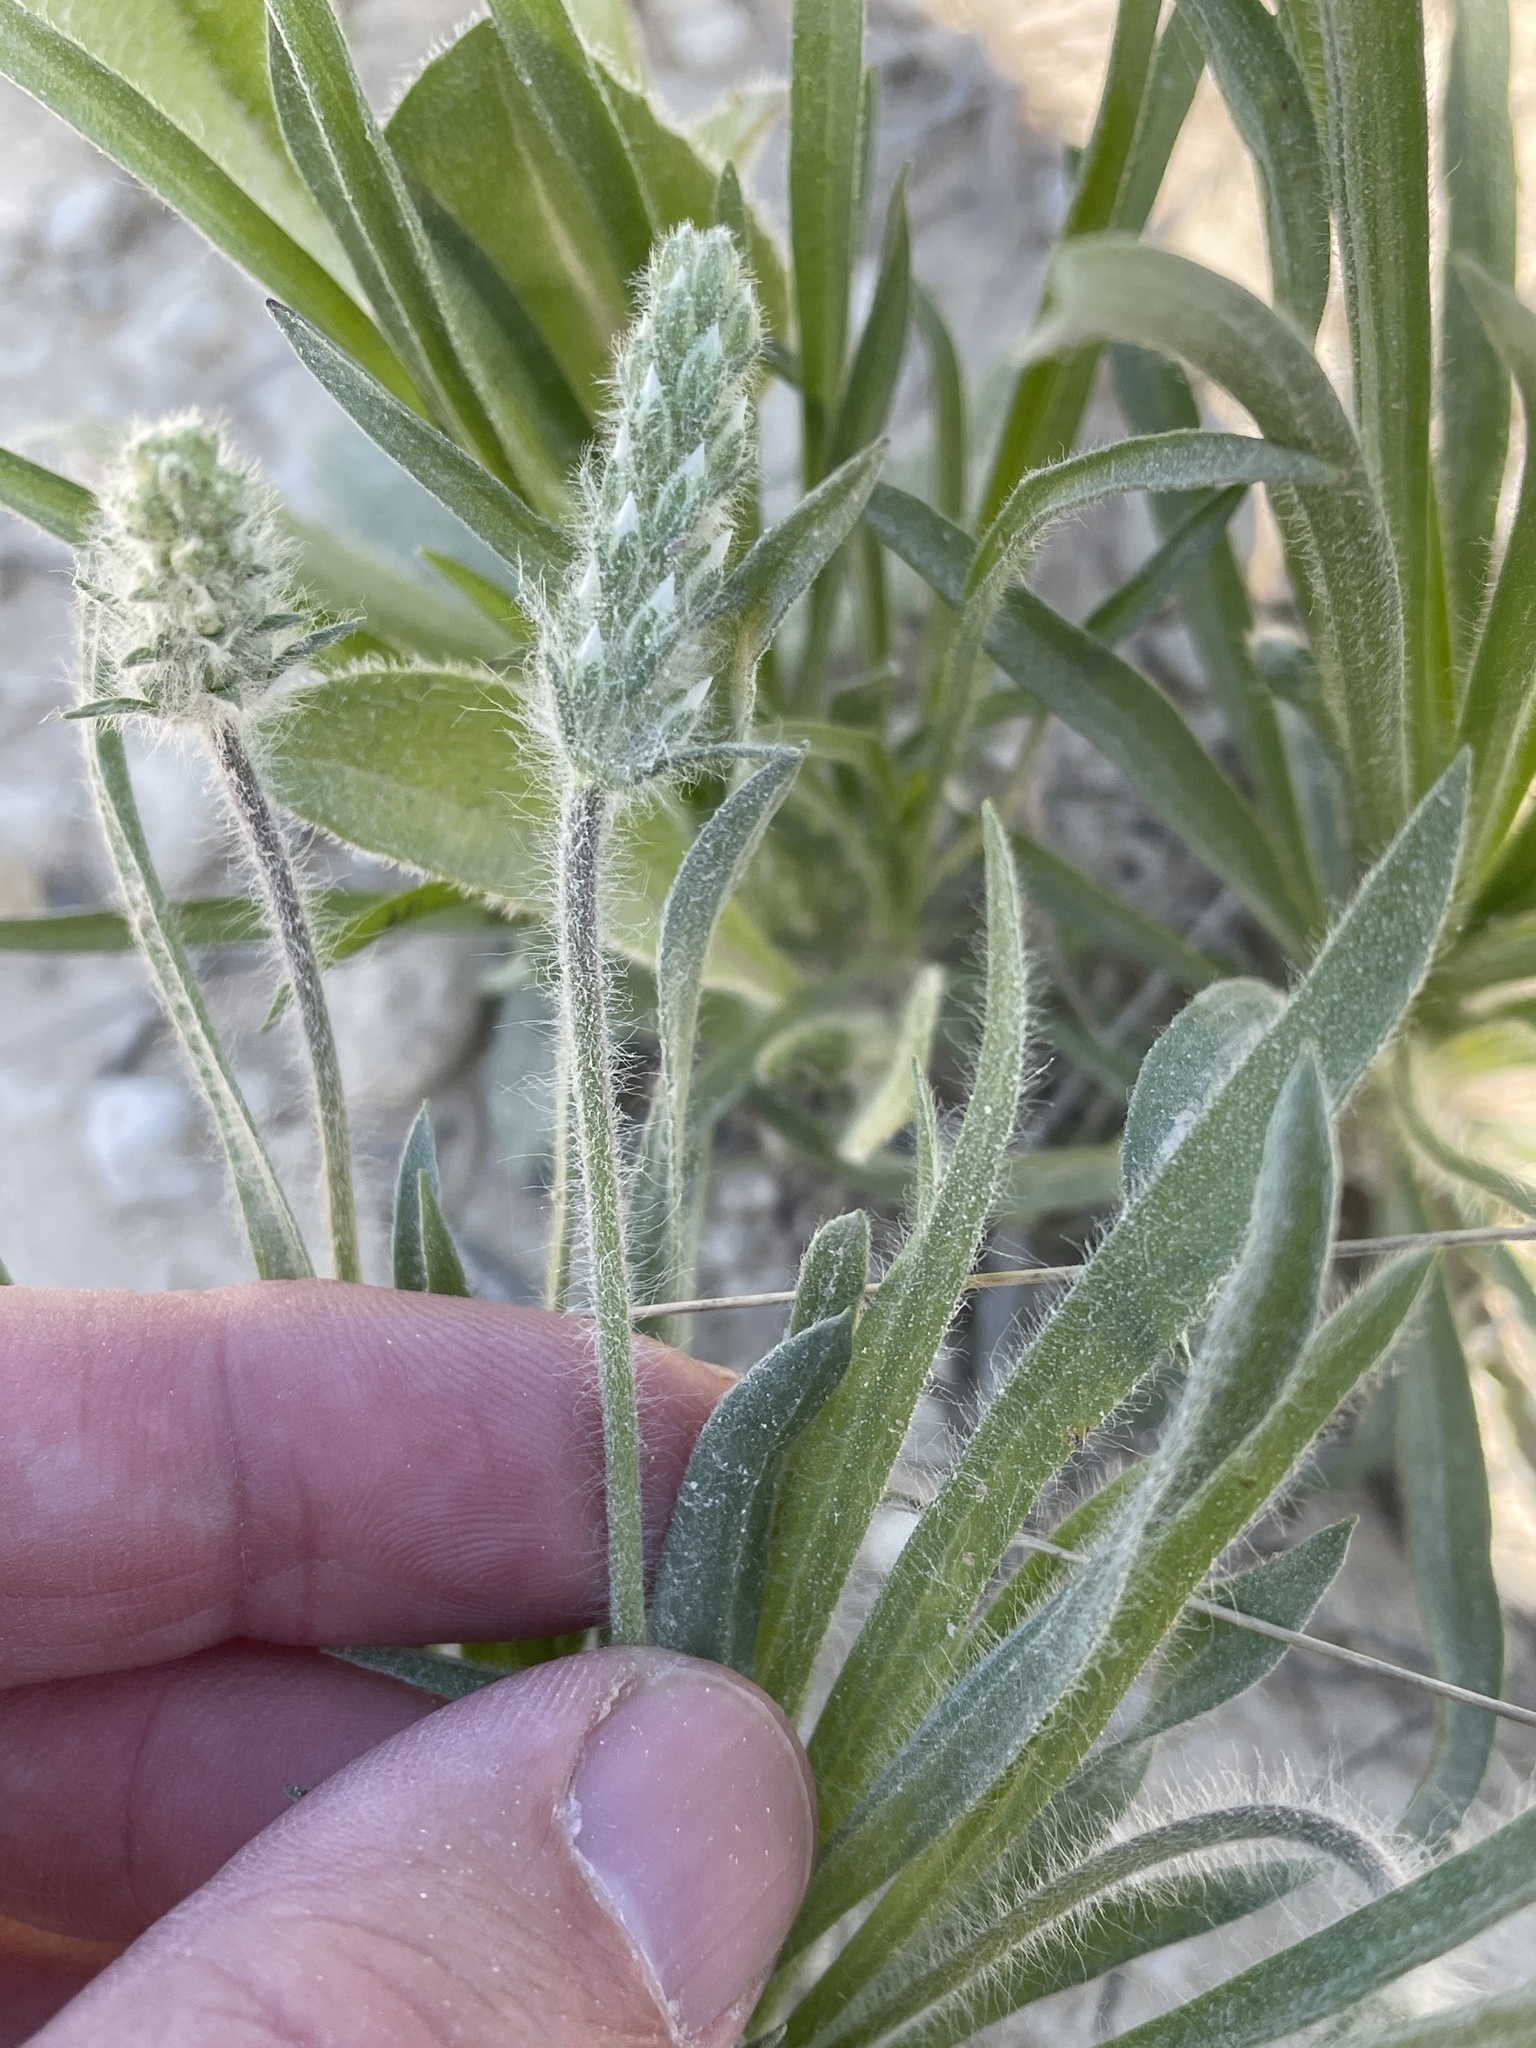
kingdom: Plantae
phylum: Tracheophyta
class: Magnoliopsida
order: Lamiales
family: Plantaginaceae
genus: Plantago
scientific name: Plantago helleri
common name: Heller's plantain
